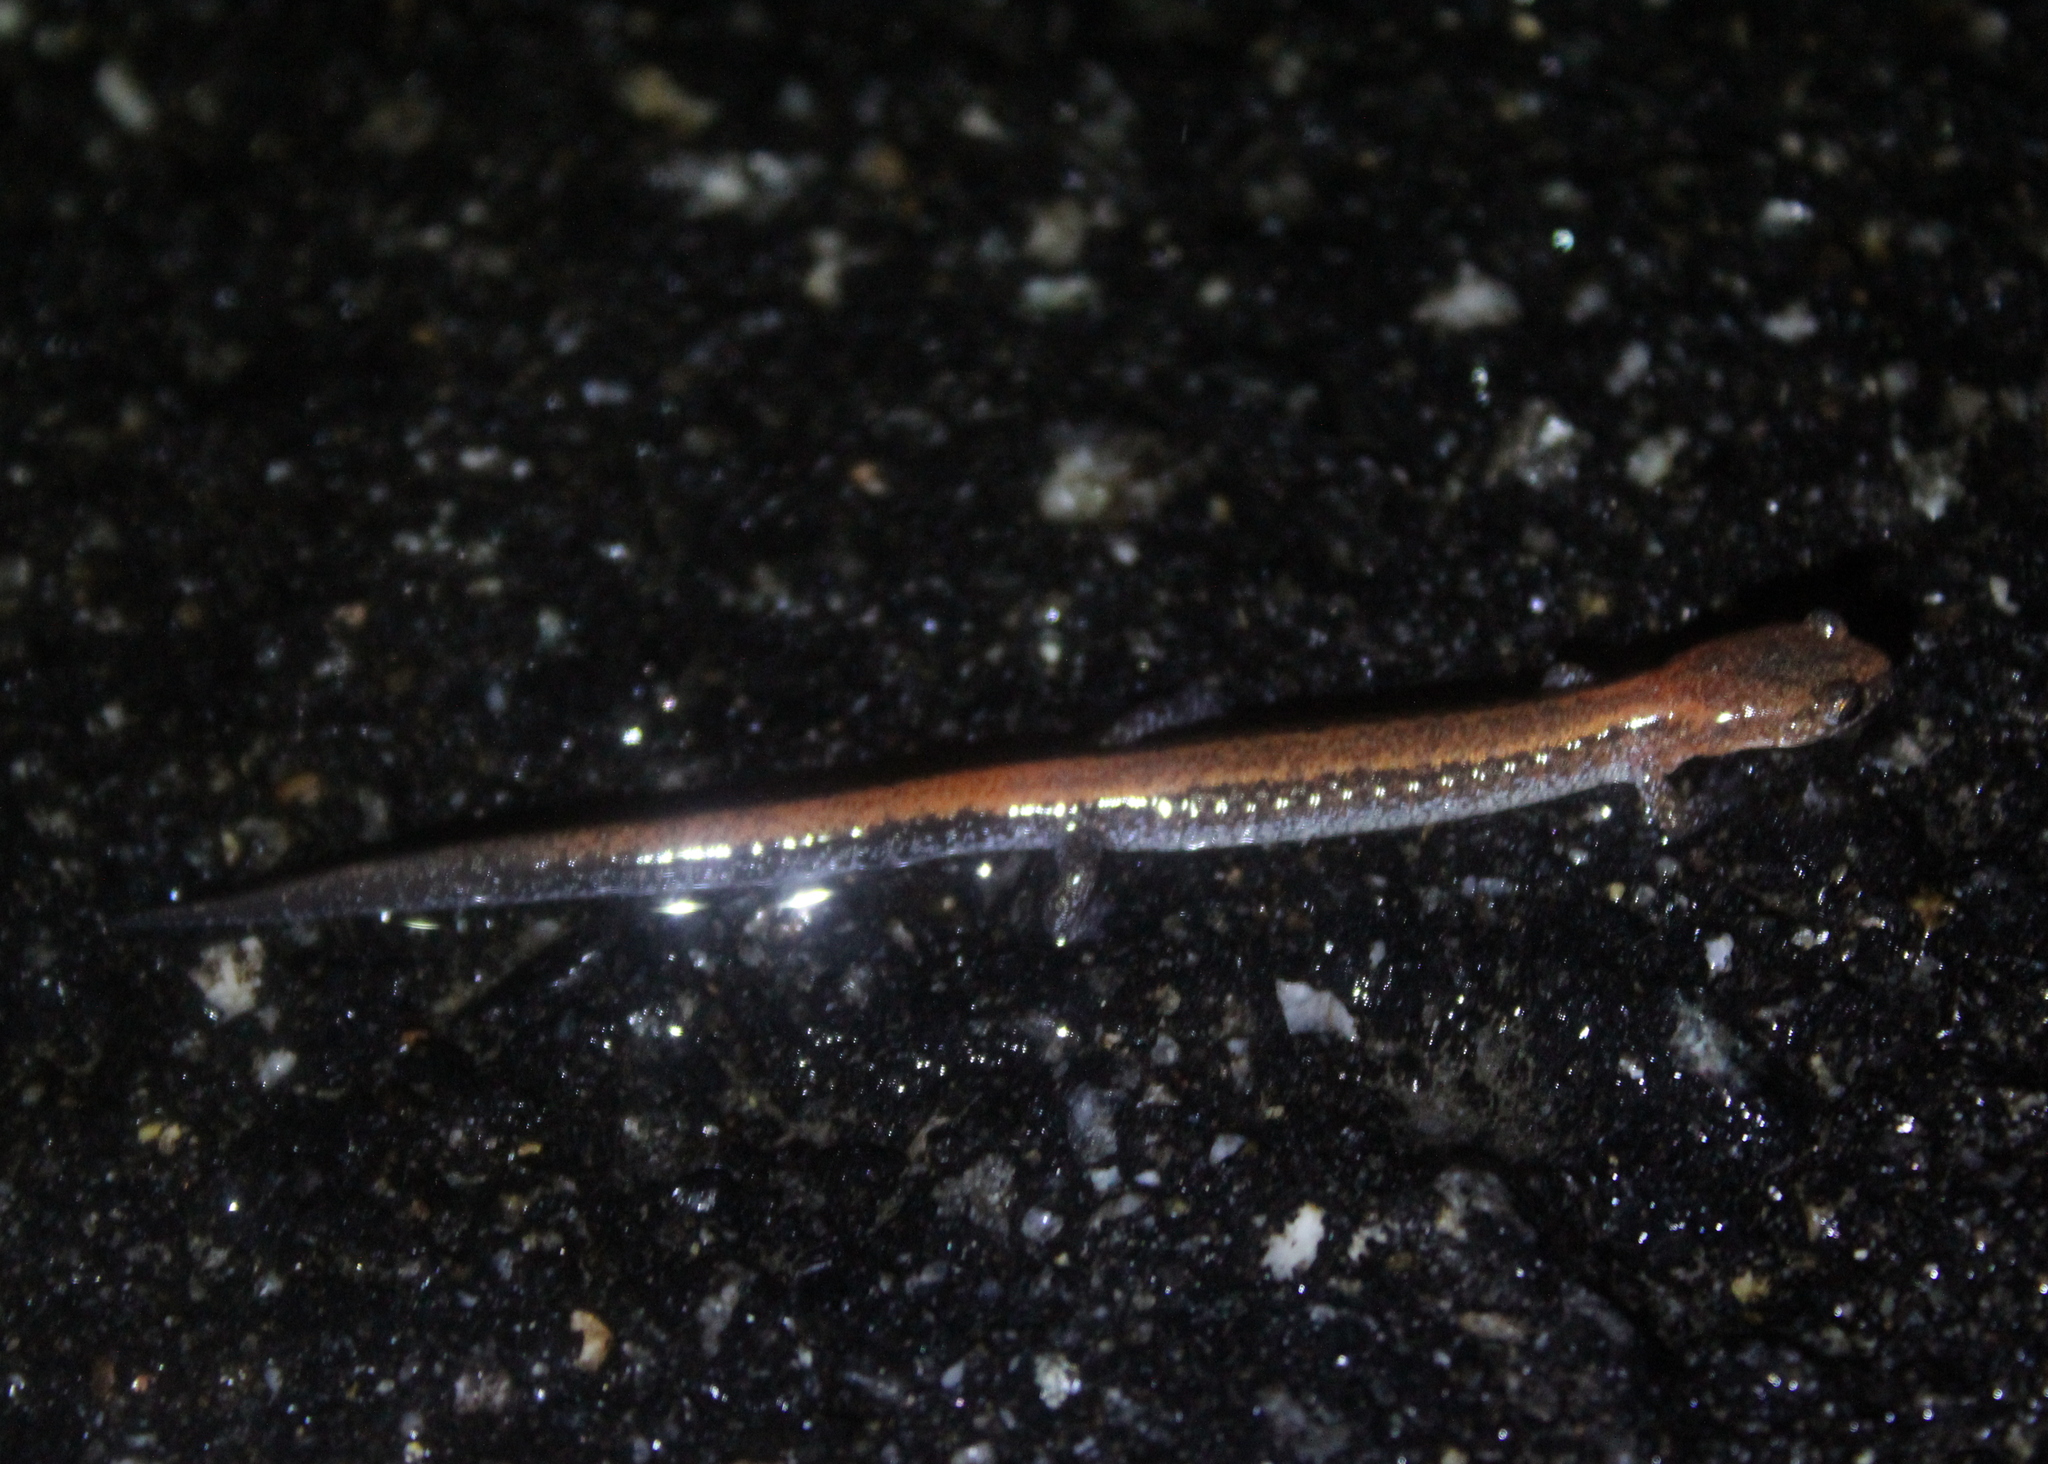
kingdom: Animalia
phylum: Chordata
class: Amphibia
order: Caudata
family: Plethodontidae
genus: Plethodon
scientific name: Plethodon cinereus
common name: Redback salamander
